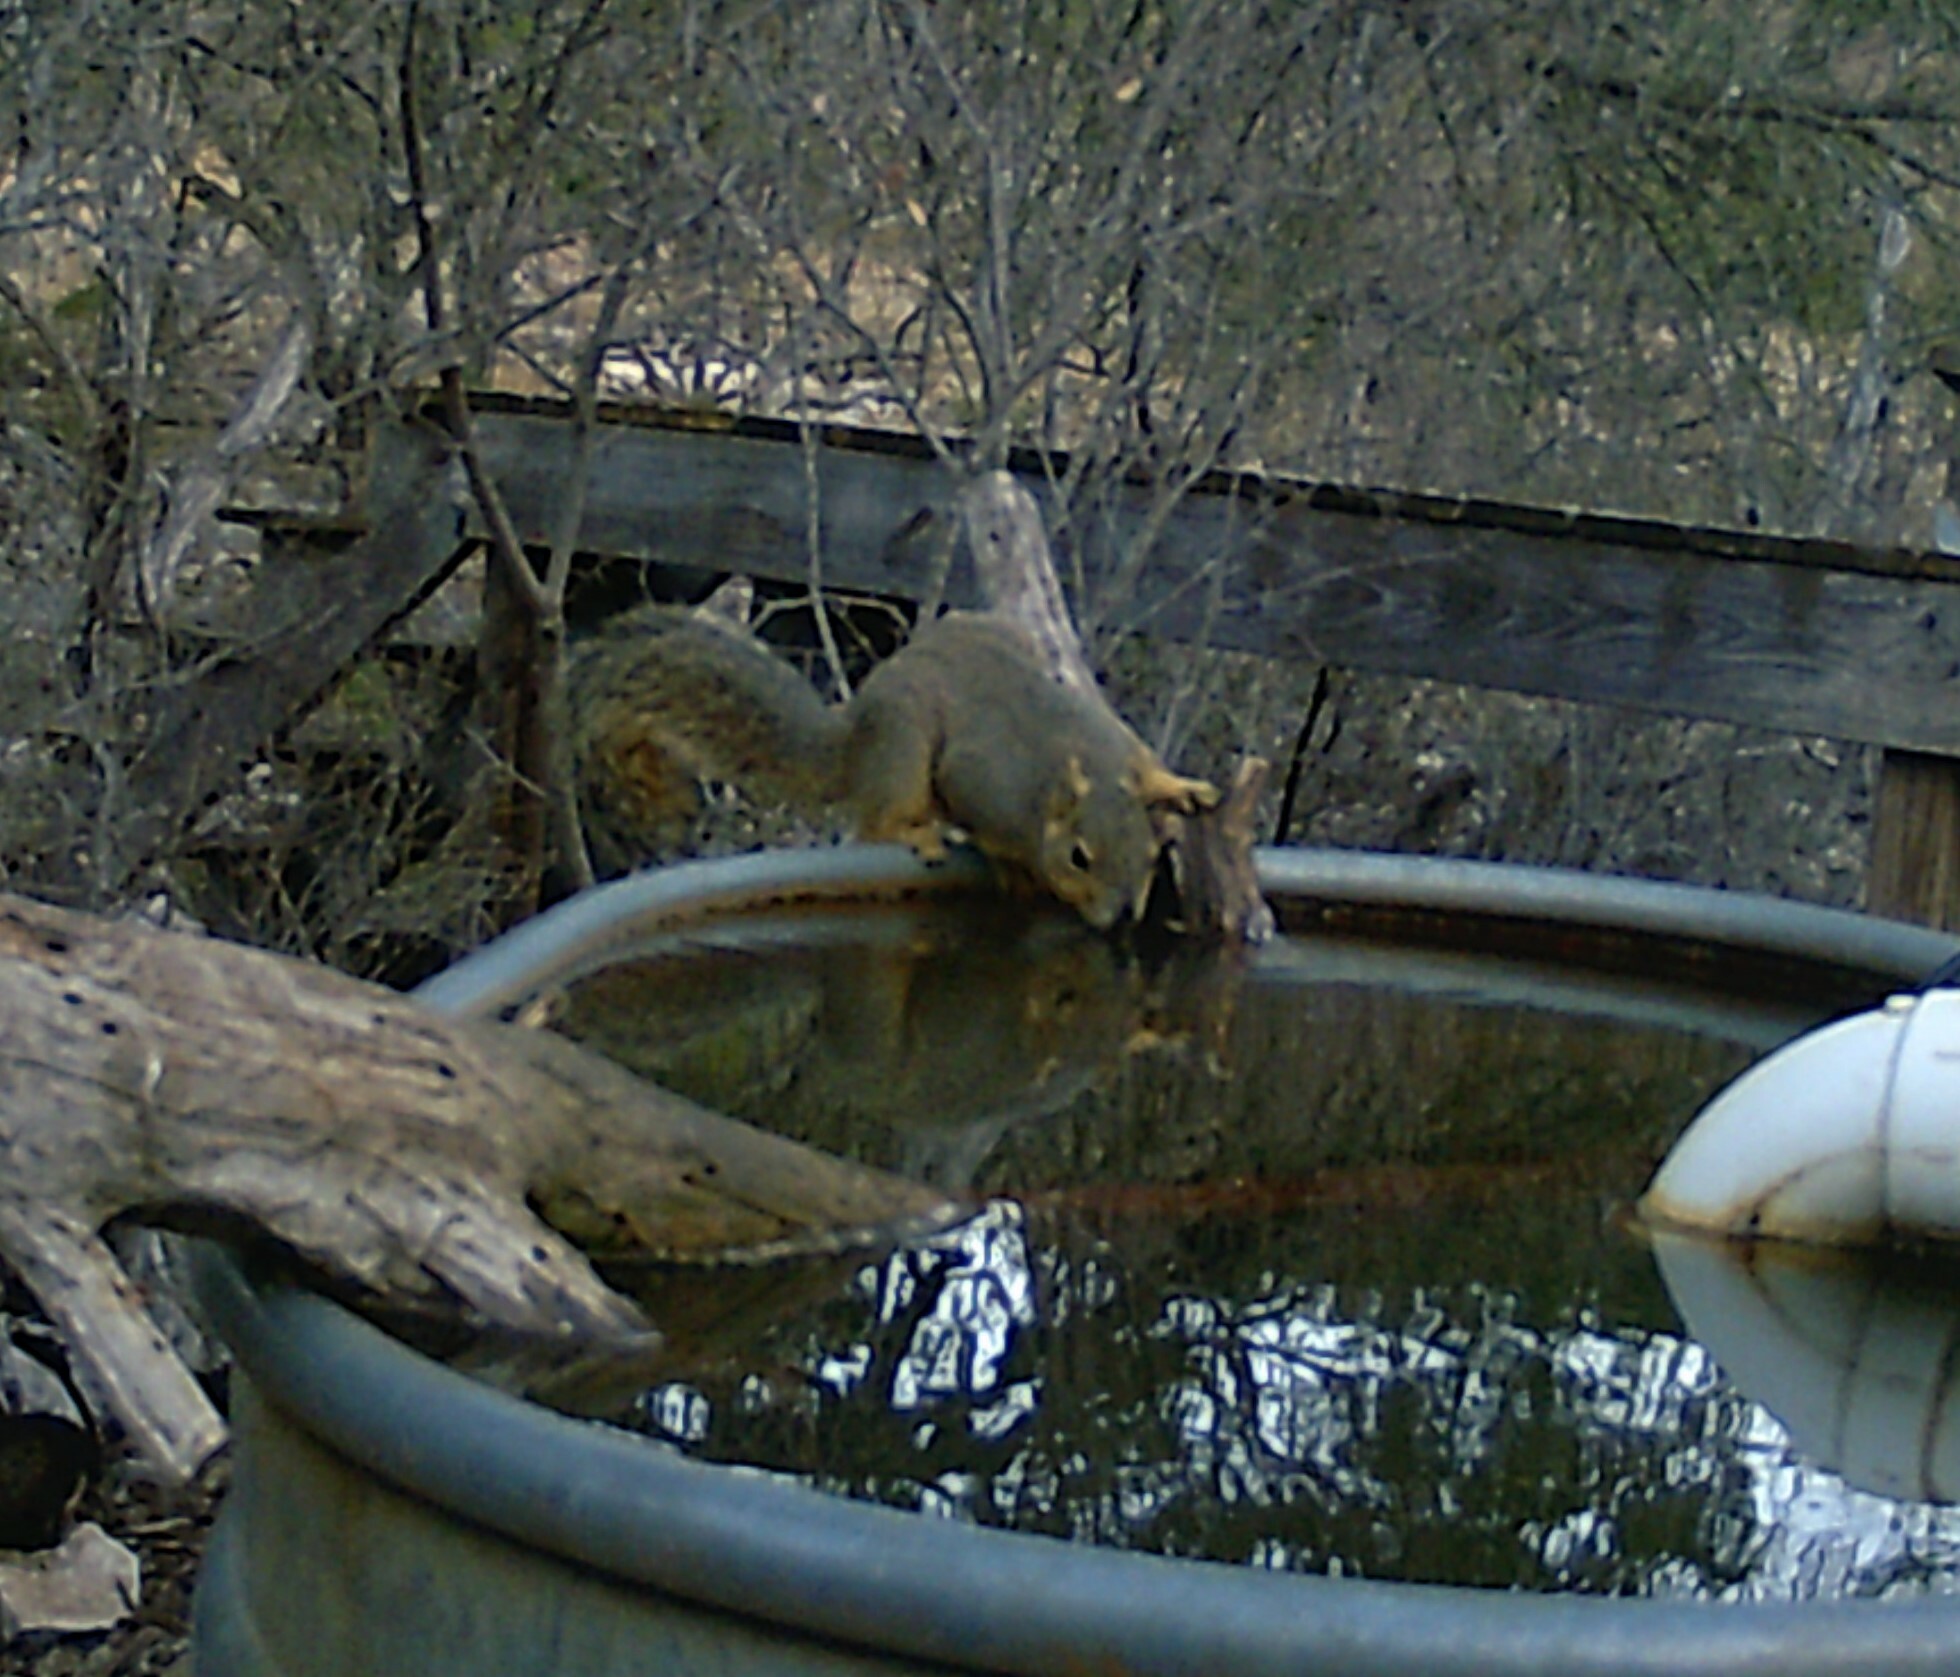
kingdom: Animalia
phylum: Chordata
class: Mammalia
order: Rodentia
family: Sciuridae
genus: Sciurus
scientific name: Sciurus niger
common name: Fox squirrel
